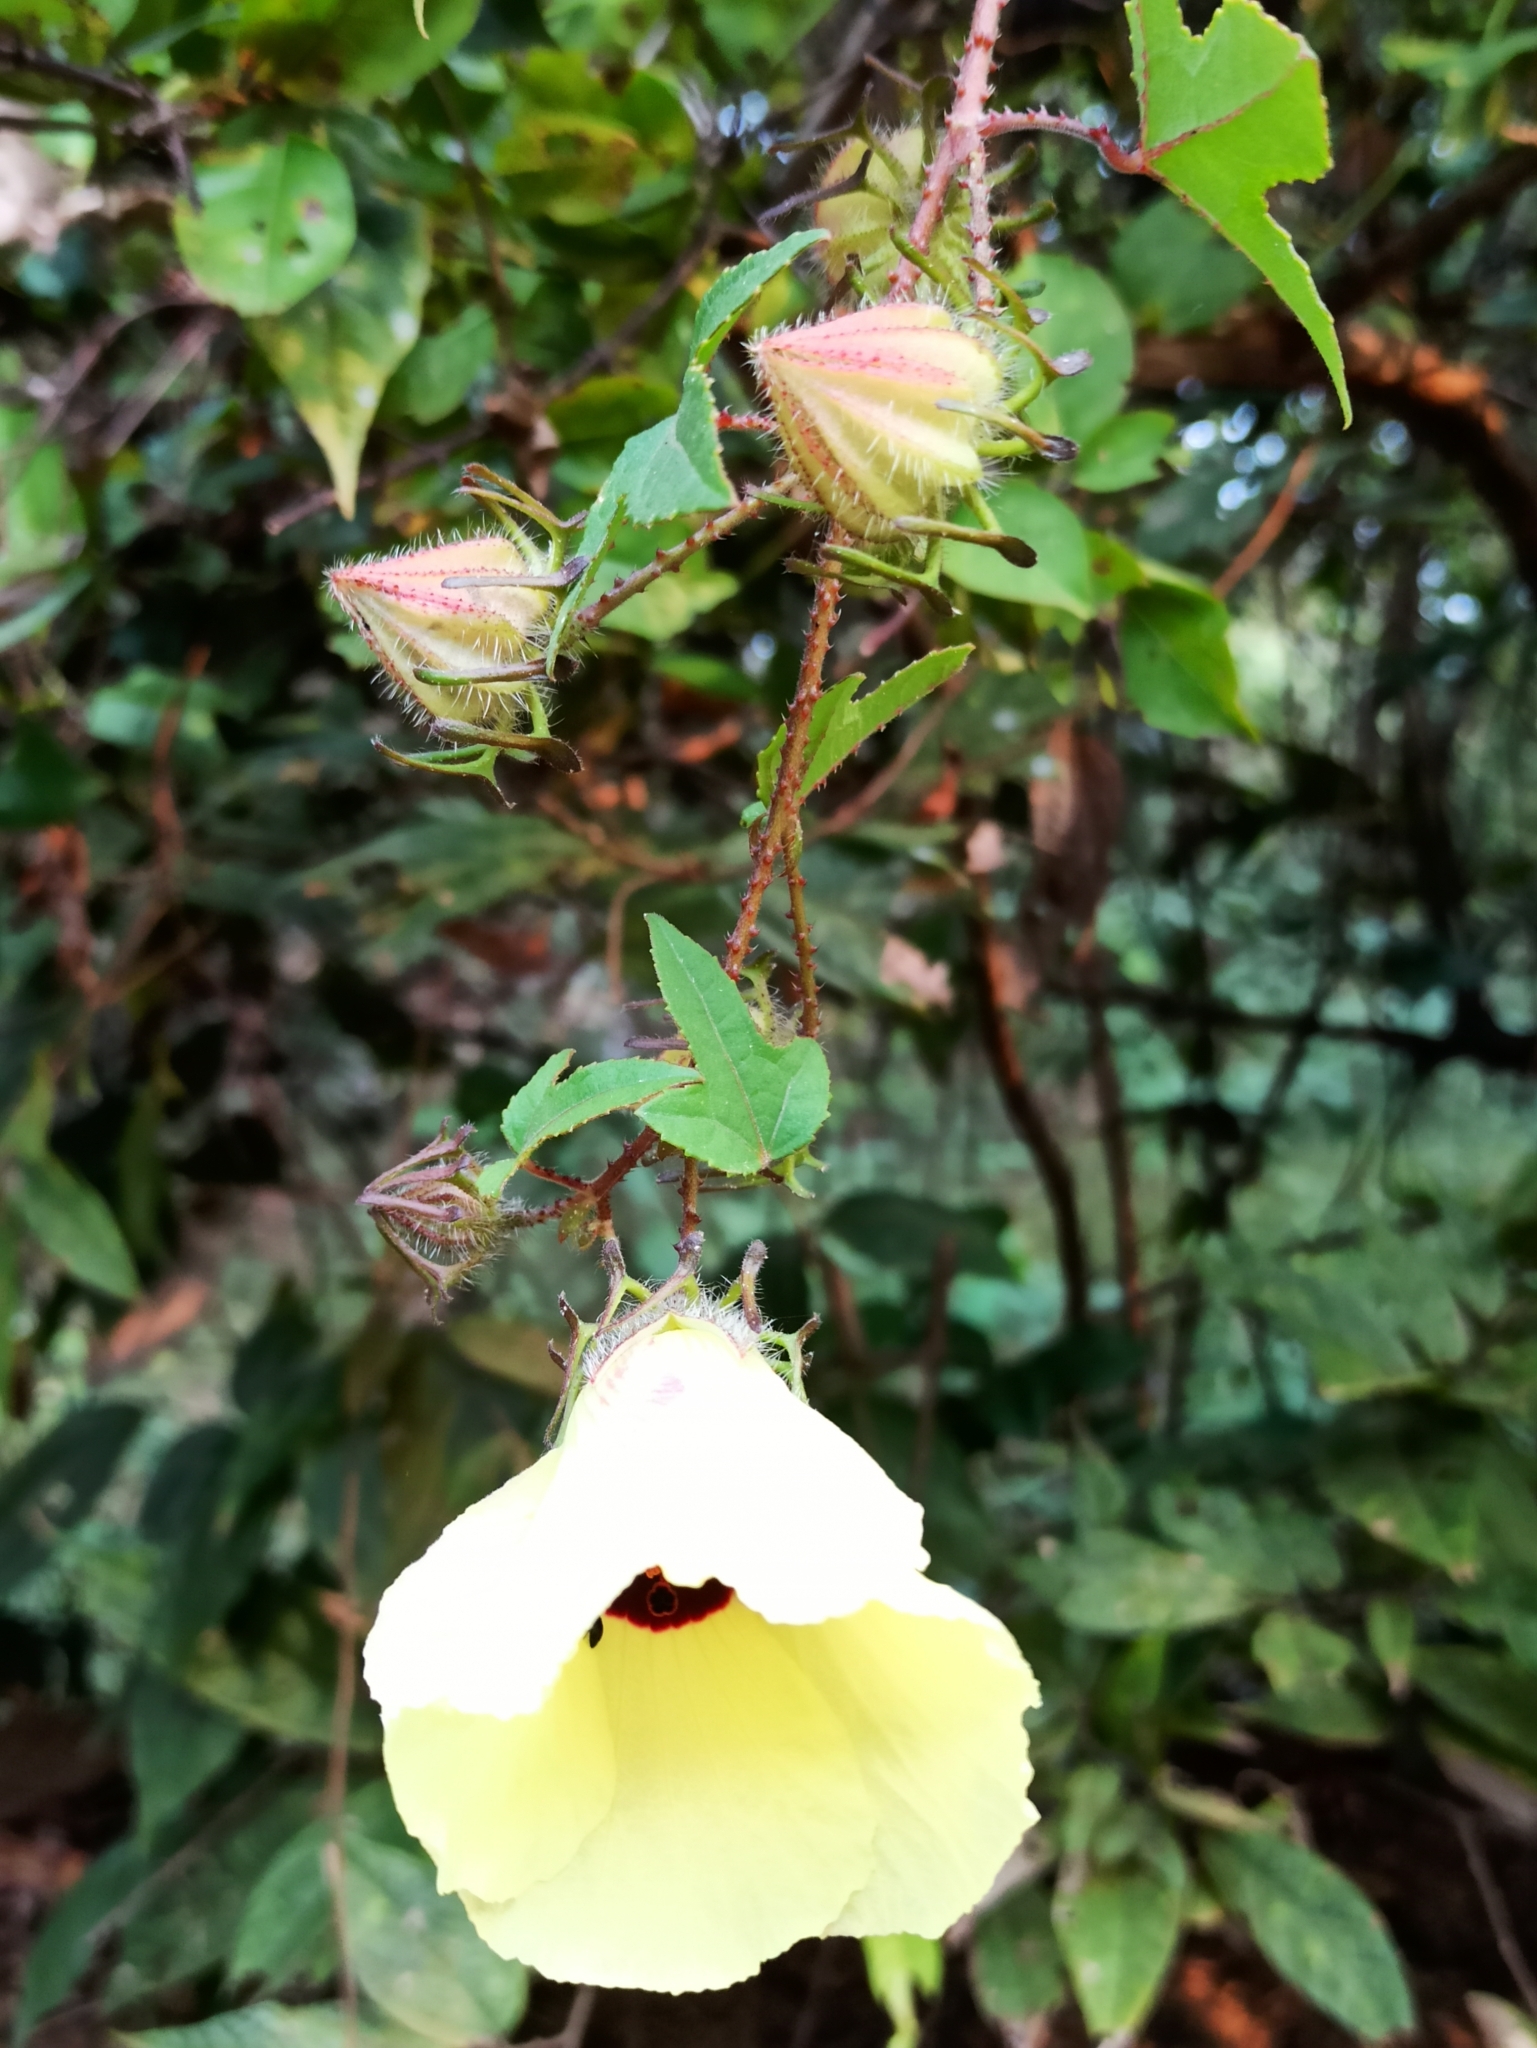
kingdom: Plantae
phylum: Tracheophyta
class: Magnoliopsida
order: Malvales
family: Malvaceae
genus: Hibiscus
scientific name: Hibiscus surattensis
